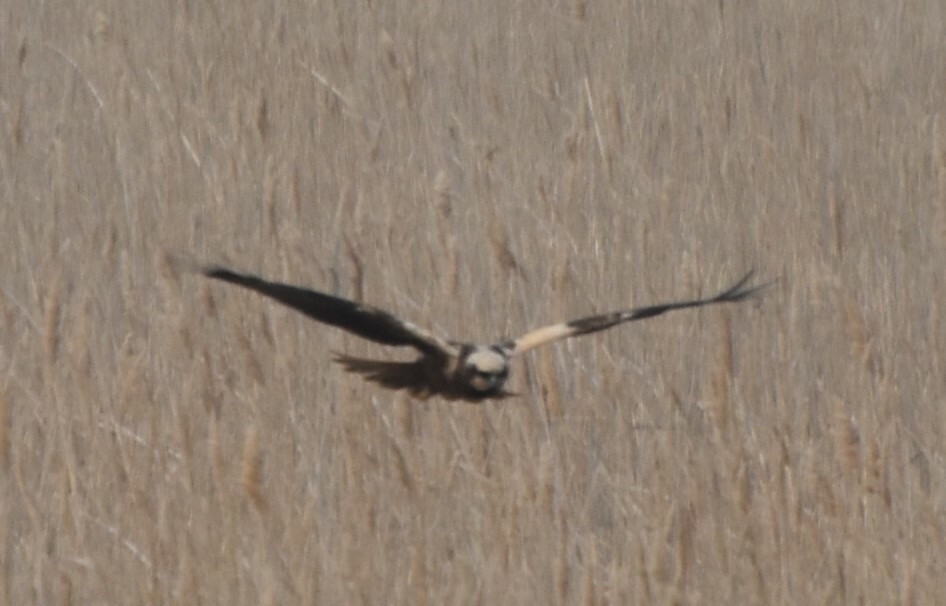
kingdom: Animalia
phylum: Chordata
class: Aves
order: Accipitriformes
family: Accipitridae
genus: Circus
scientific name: Circus aeruginosus
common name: Western marsh harrier
